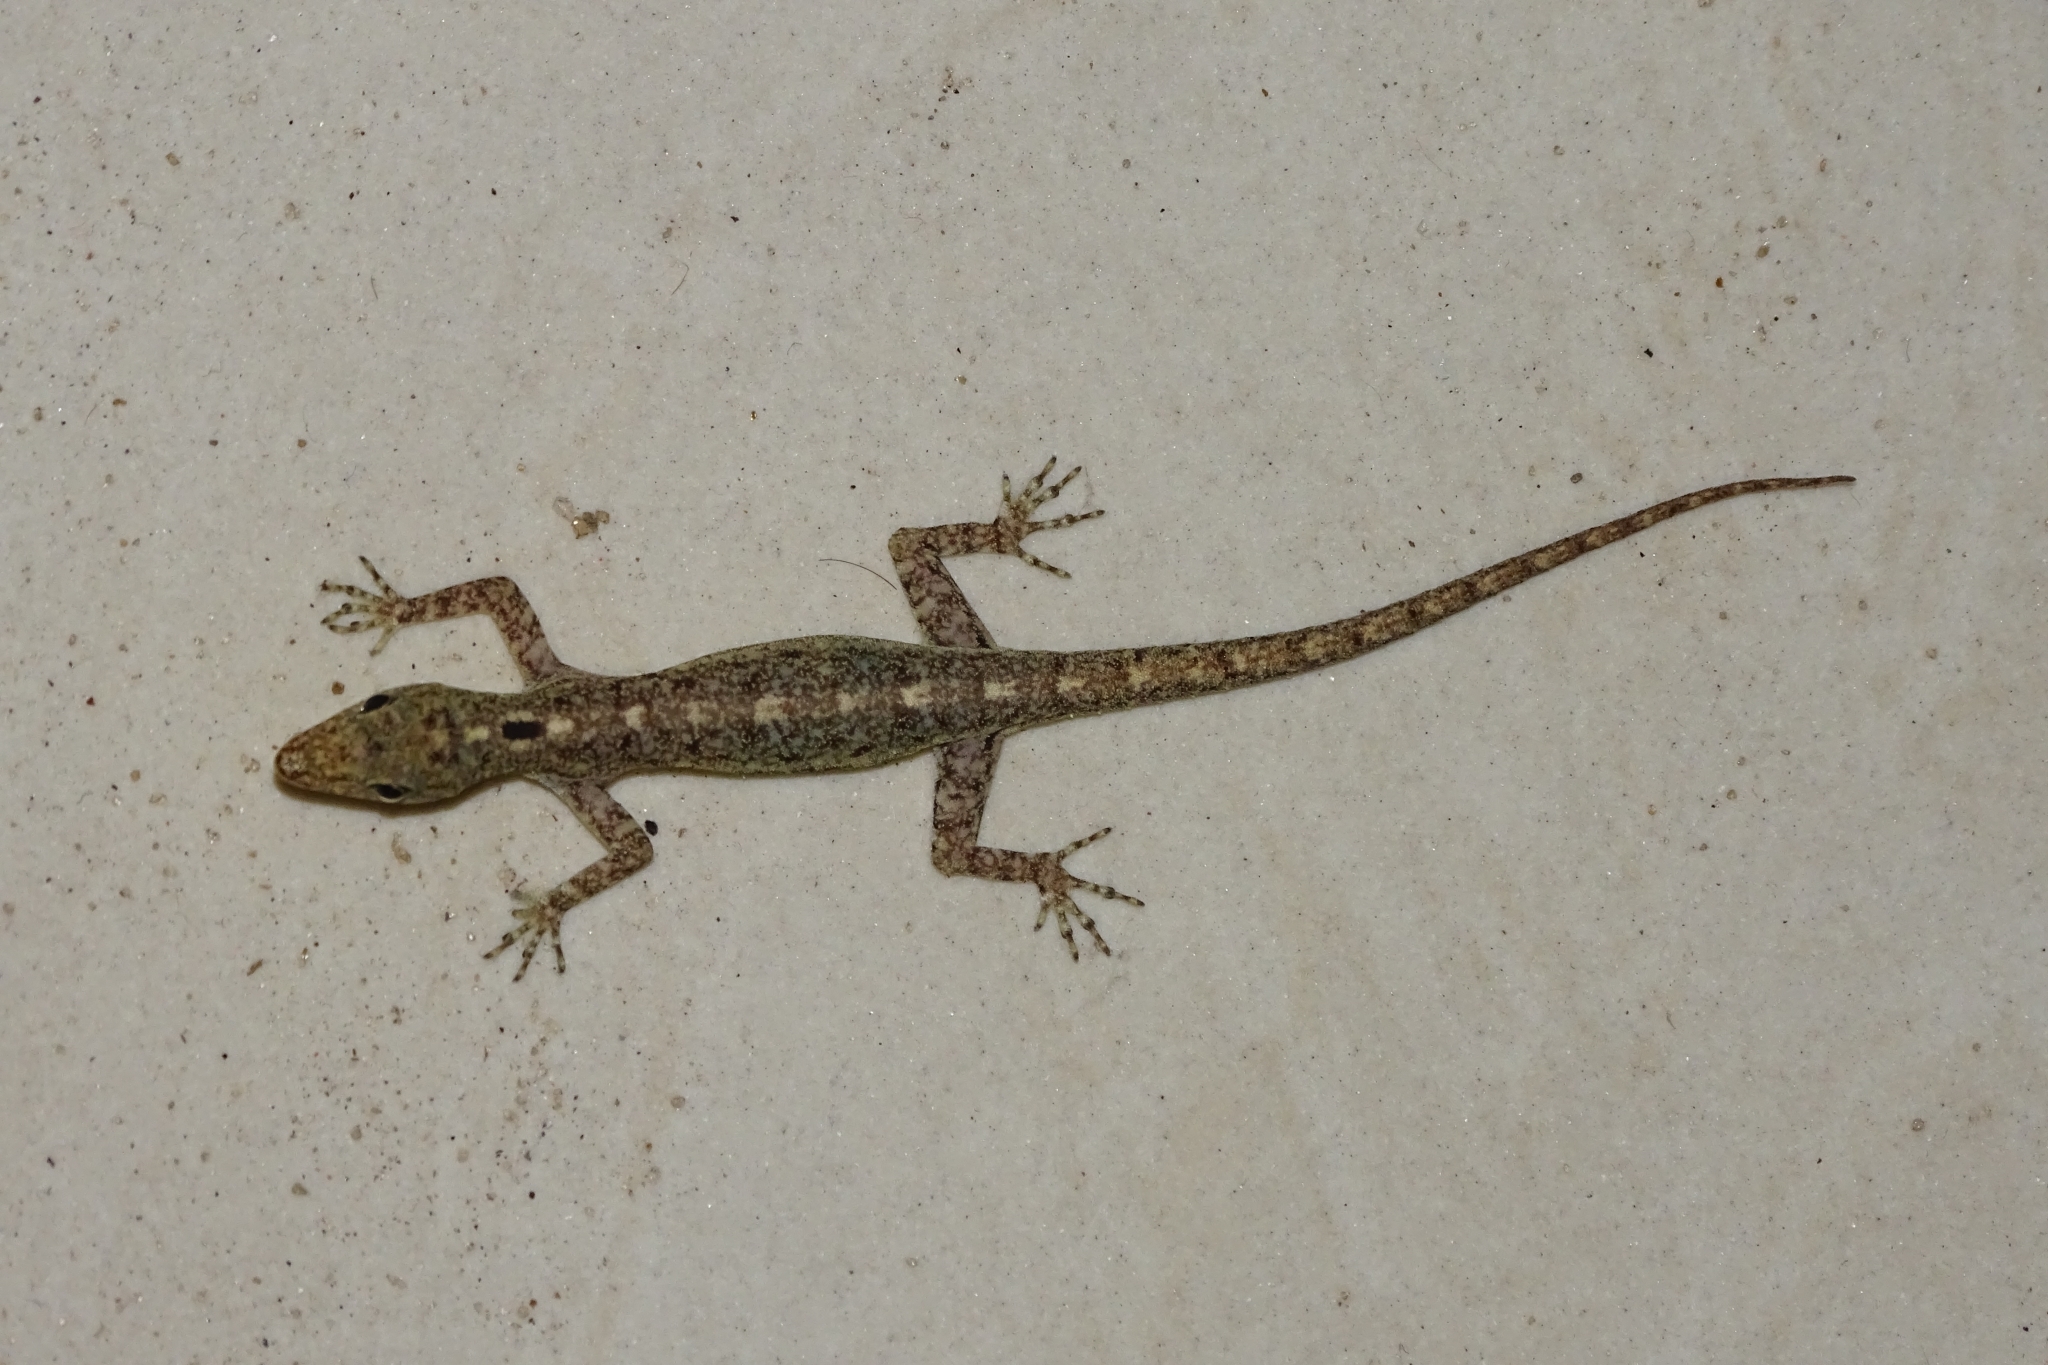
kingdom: Animalia
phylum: Chordata
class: Squamata
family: Gekkonidae
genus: Cnemaspis
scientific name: Cnemaspis littoralis
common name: Coastal day gecko
